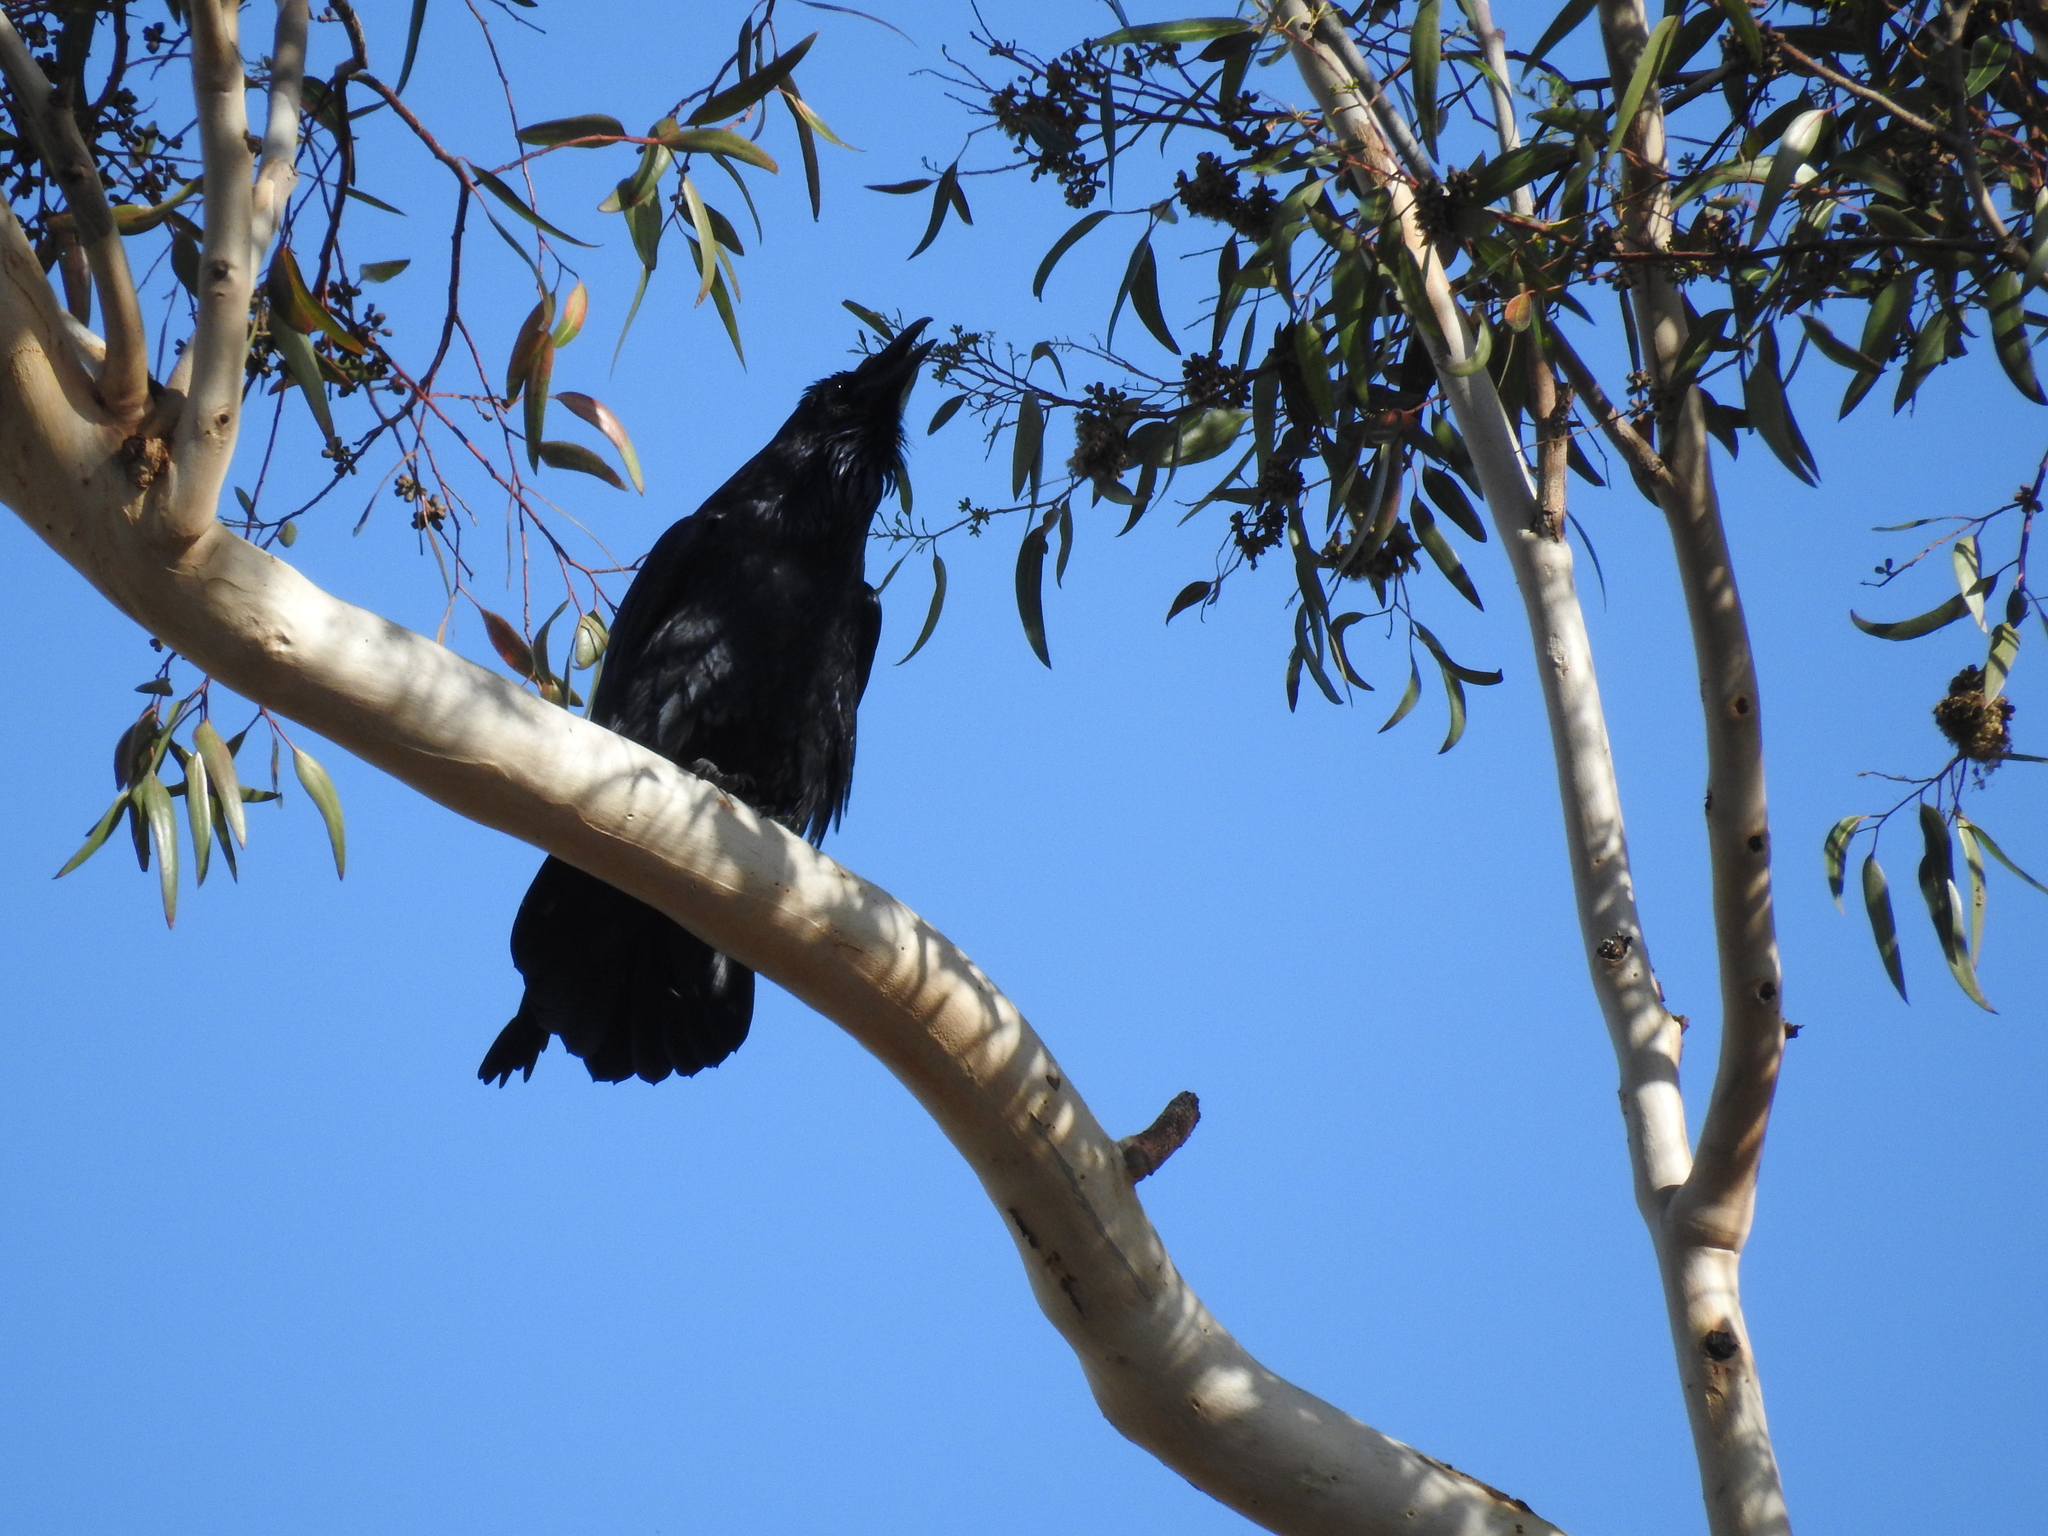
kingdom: Animalia
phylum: Chordata
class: Aves
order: Passeriformes
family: Corvidae
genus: Corvus
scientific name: Corvus corax
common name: Common raven
